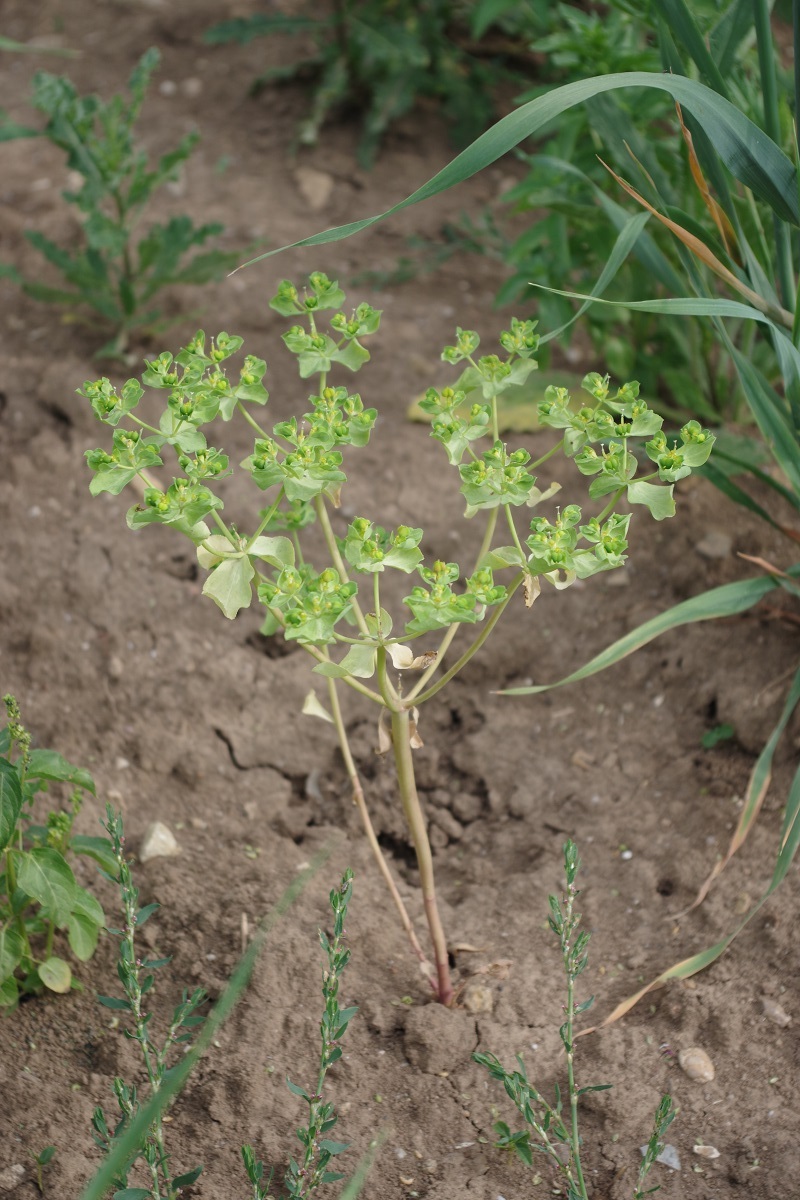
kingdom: Plantae
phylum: Tracheophyta
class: Magnoliopsida
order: Malpighiales
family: Euphorbiaceae
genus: Euphorbia
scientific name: Euphorbia helioscopia
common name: Sun spurge
